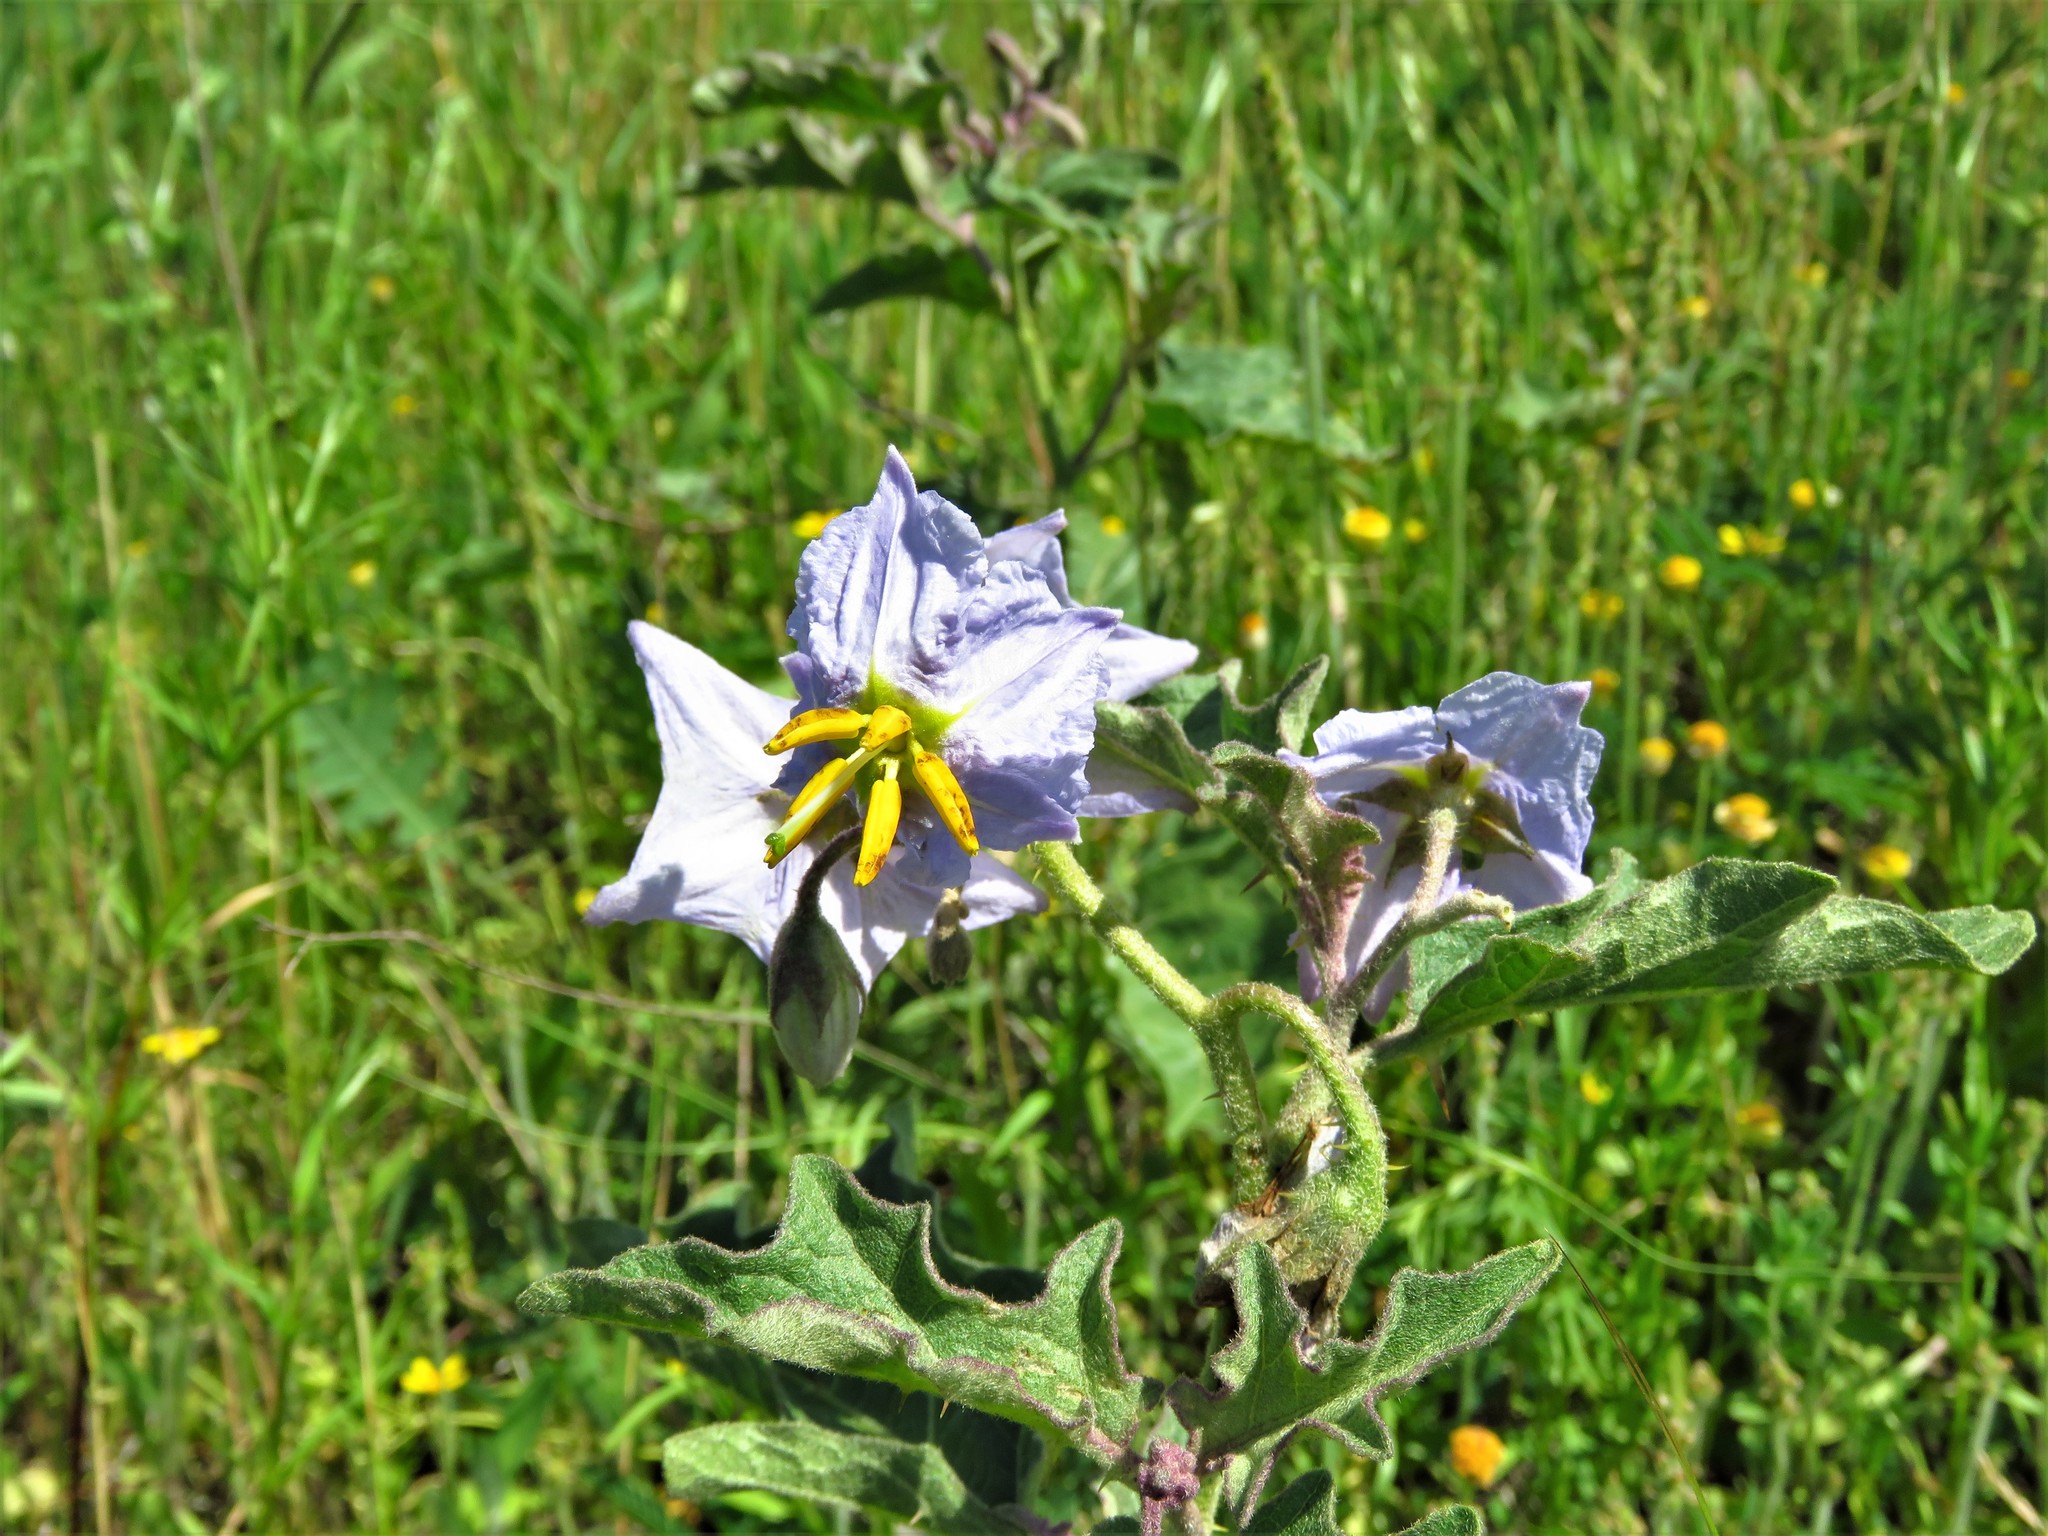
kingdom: Plantae
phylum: Tracheophyta
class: Magnoliopsida
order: Solanales
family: Solanaceae
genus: Solanum
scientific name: Solanum dimidiatum
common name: Carolina horse-nettle
